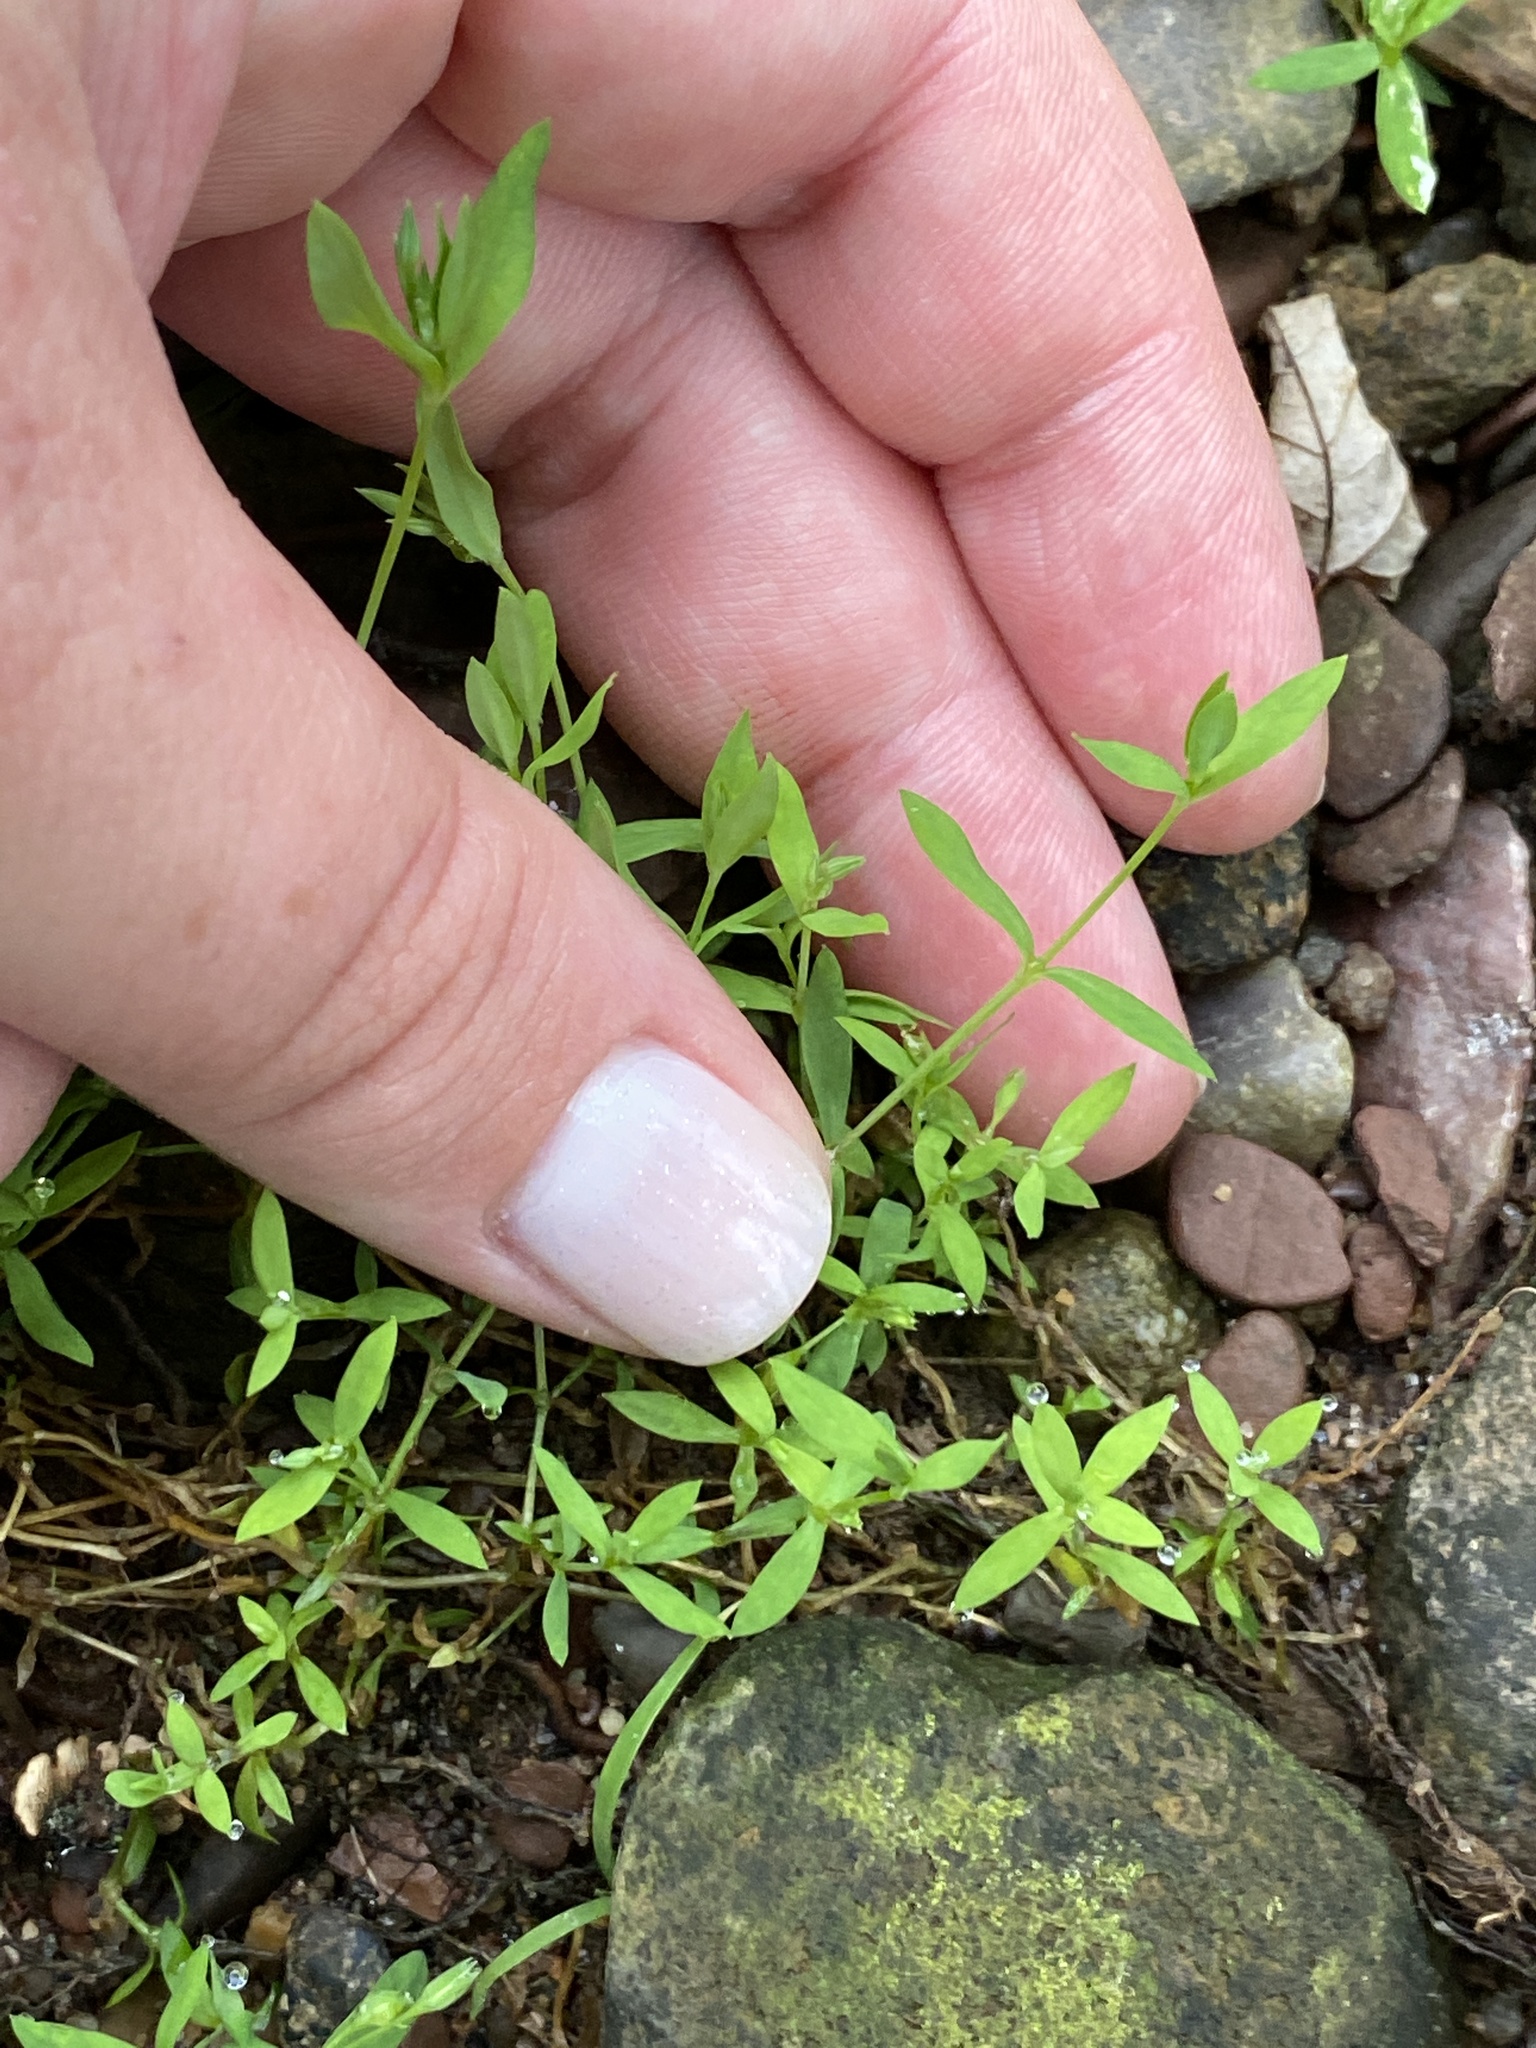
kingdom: Plantae
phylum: Tracheophyta
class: Magnoliopsida
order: Caryophyllales
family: Caryophyllaceae
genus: Stellaria
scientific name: Stellaria alsine
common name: Bog stitchwort
